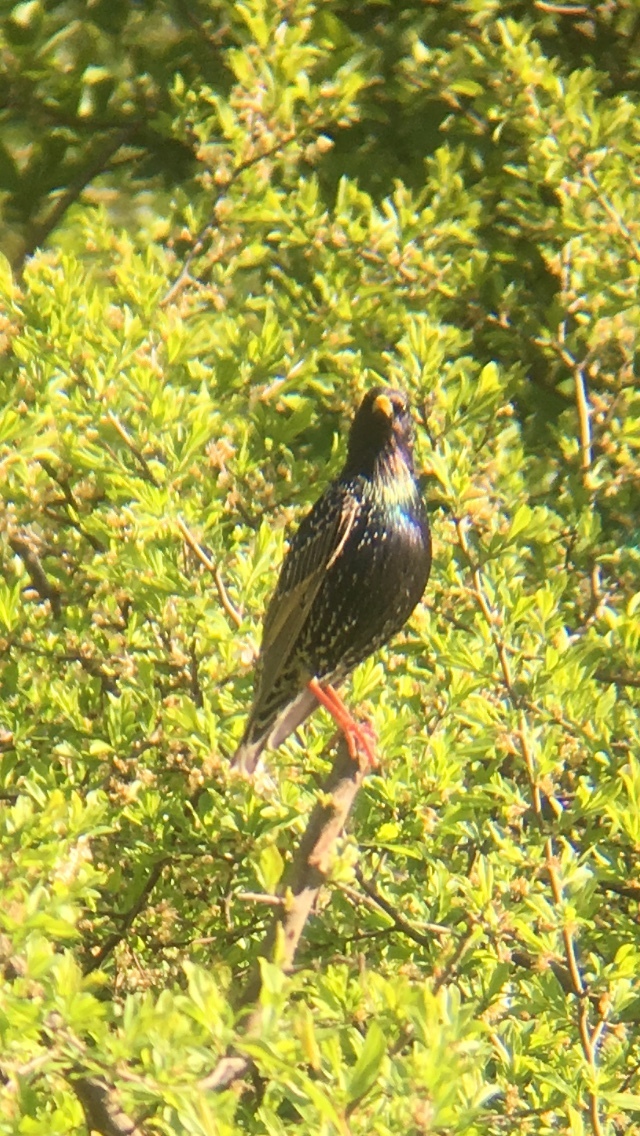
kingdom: Animalia
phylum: Chordata
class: Aves
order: Passeriformes
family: Sturnidae
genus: Sturnus
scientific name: Sturnus vulgaris
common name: Common starling
